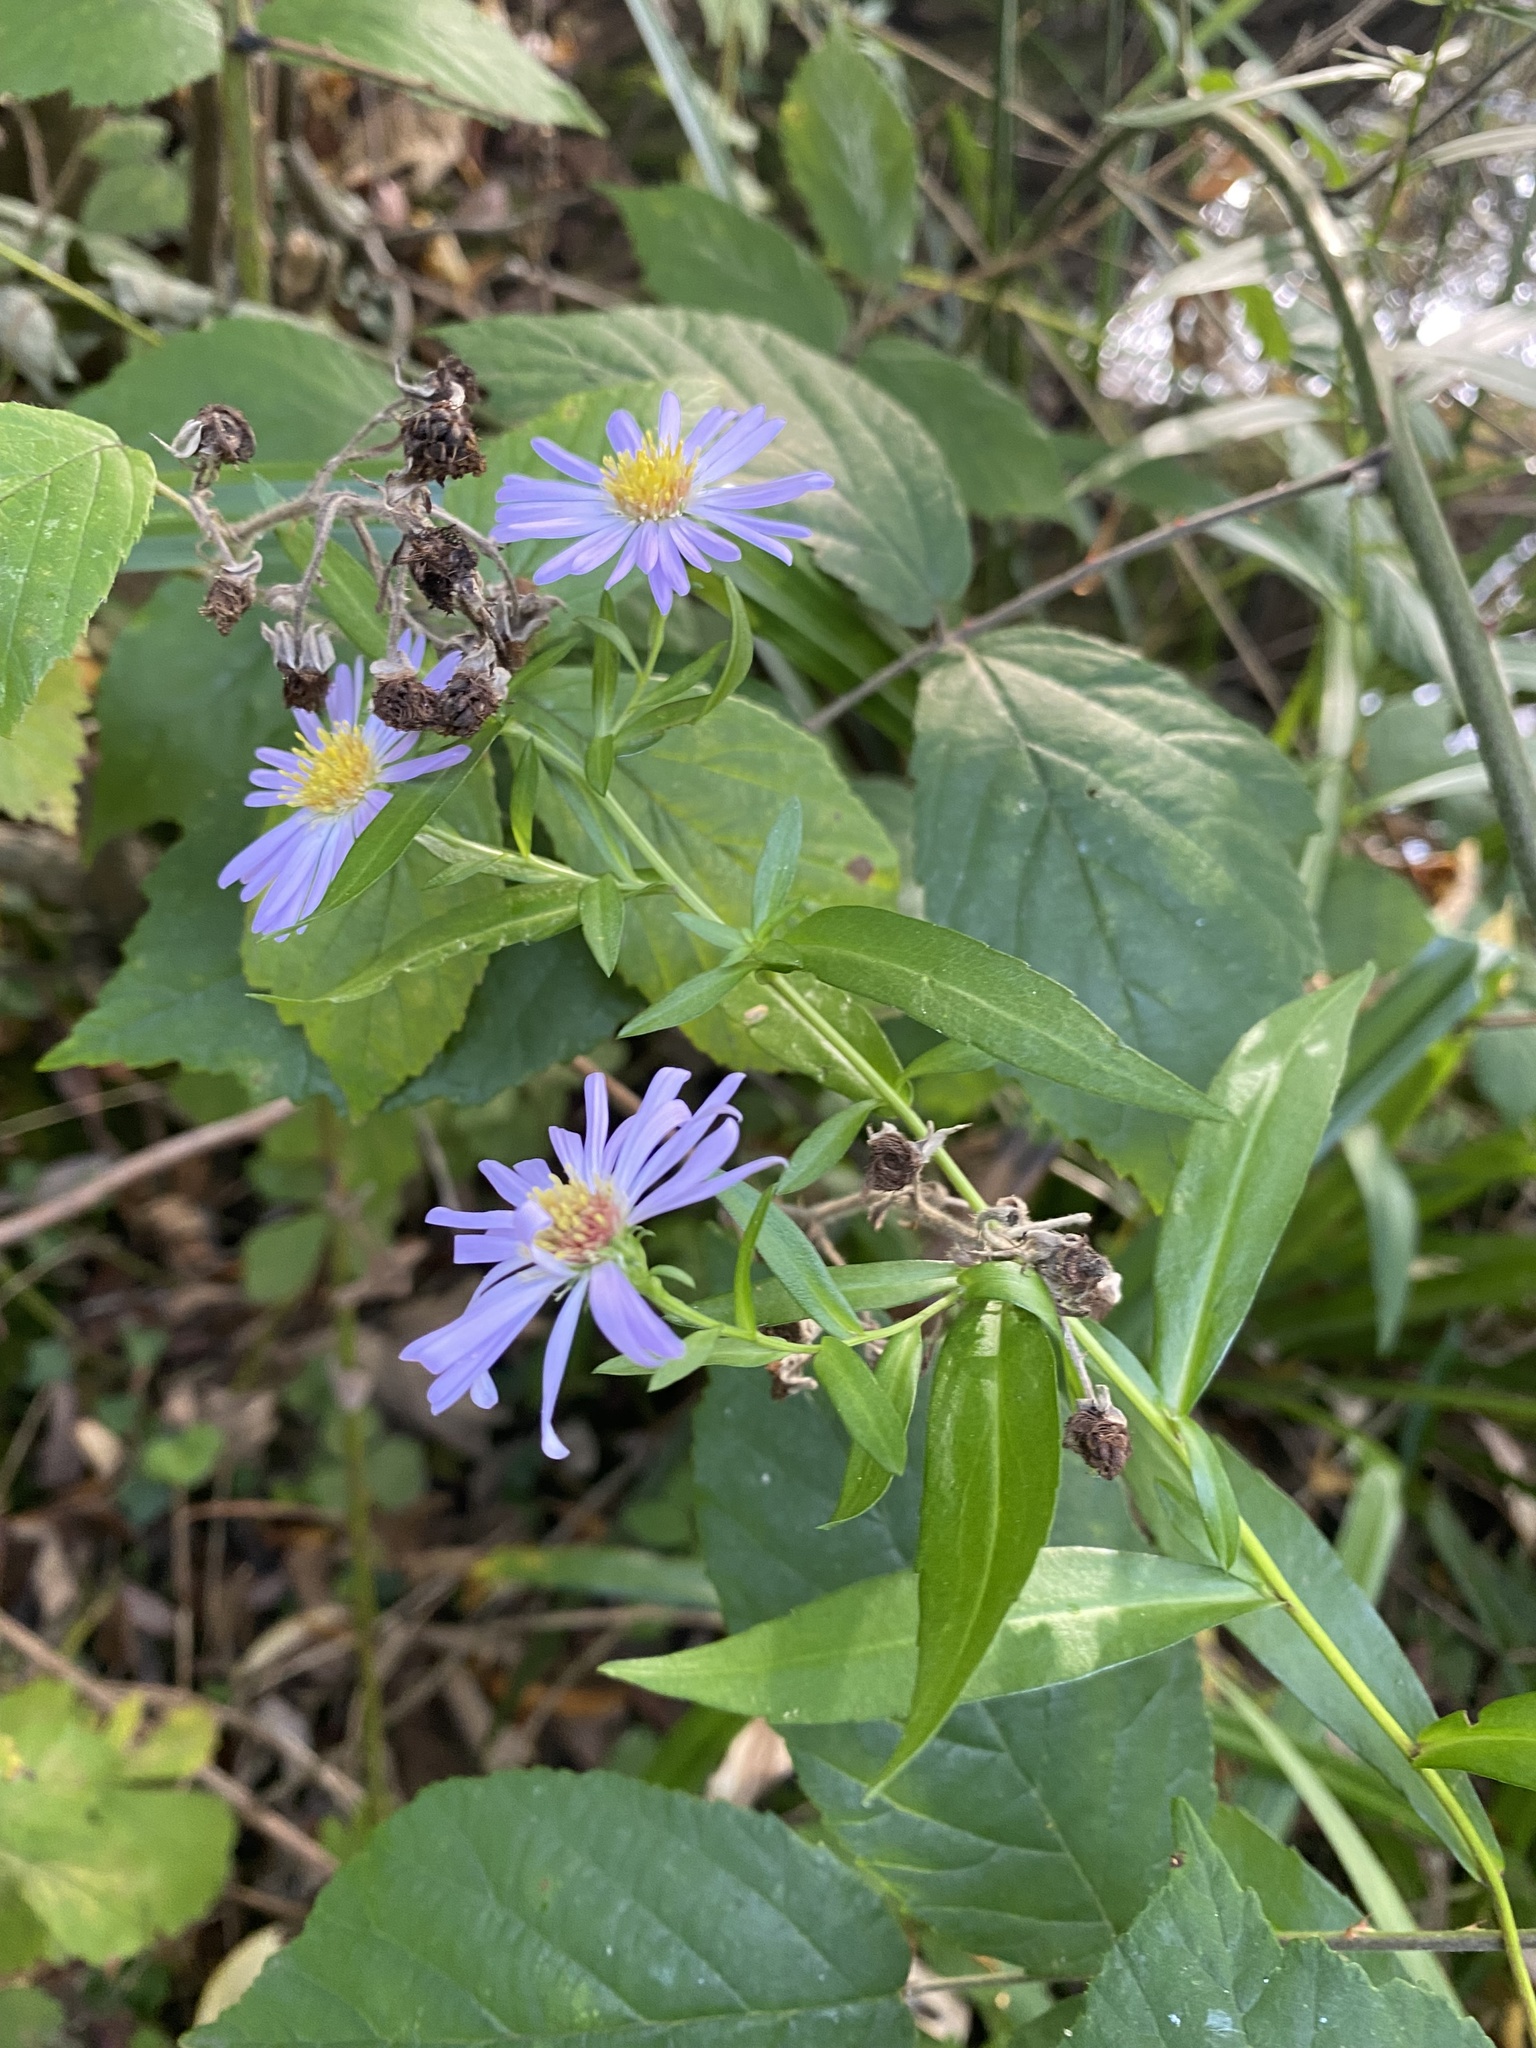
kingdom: Plantae
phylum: Tracheophyta
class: Magnoliopsida
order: Asterales
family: Asteraceae
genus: Symphyotrichum
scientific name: Symphyotrichum novi-belgii
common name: Michaelmas daisy
